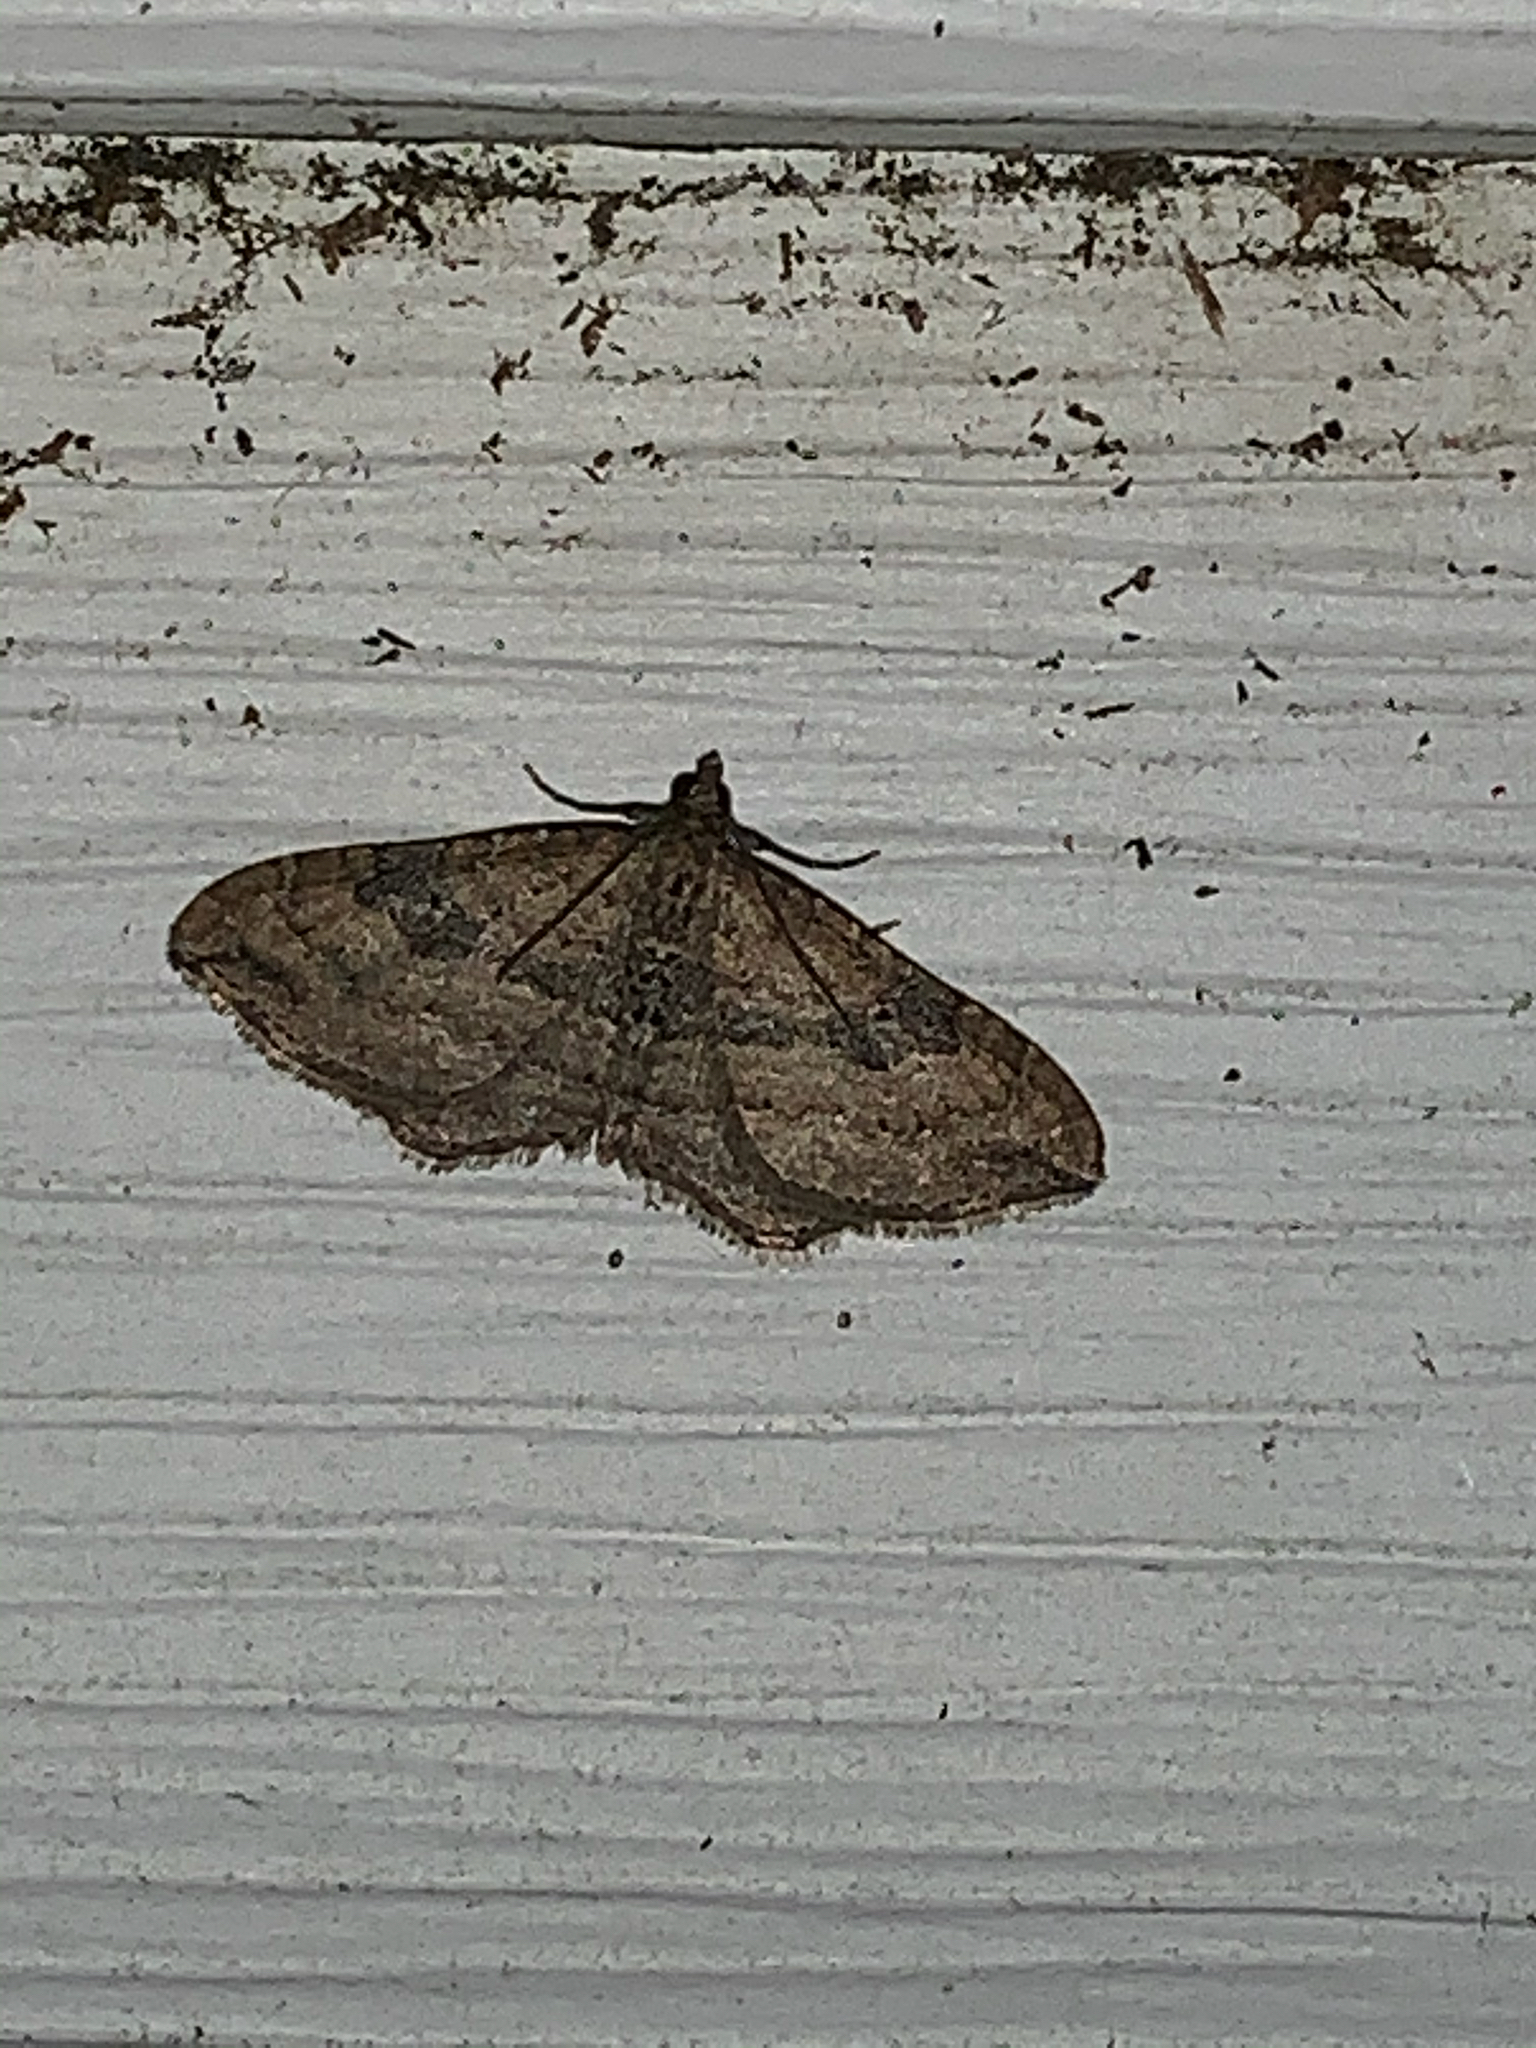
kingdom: Animalia
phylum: Arthropoda
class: Insecta
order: Lepidoptera
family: Geometridae
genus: Orthonama
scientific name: Orthonama obstipata
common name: The gem
